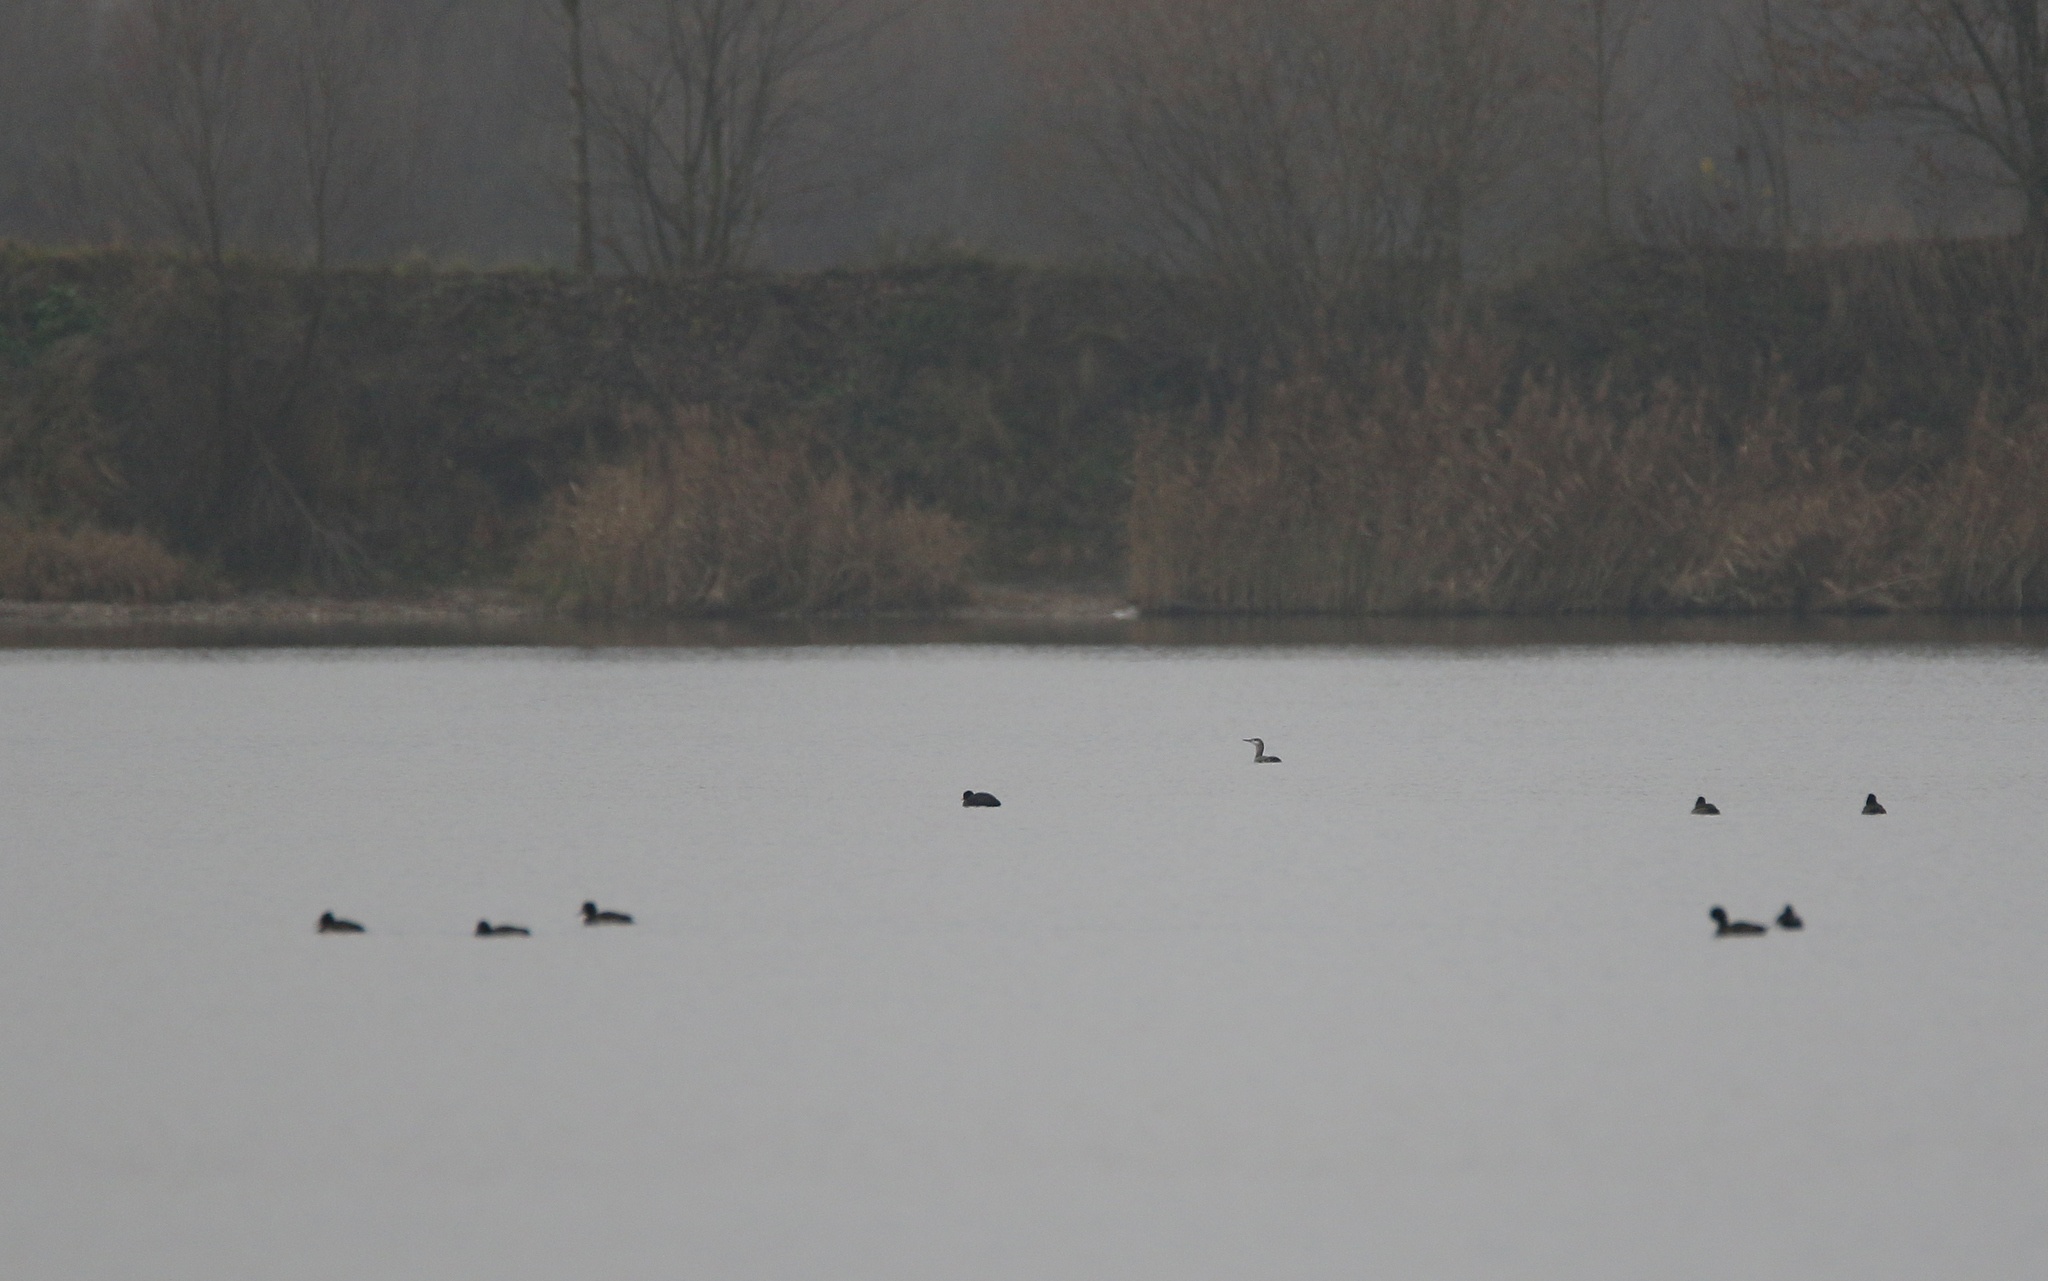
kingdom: Animalia
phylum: Chordata
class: Aves
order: Gaviiformes
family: Gaviidae
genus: Gavia
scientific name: Gavia stellata
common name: Red-throated loon
